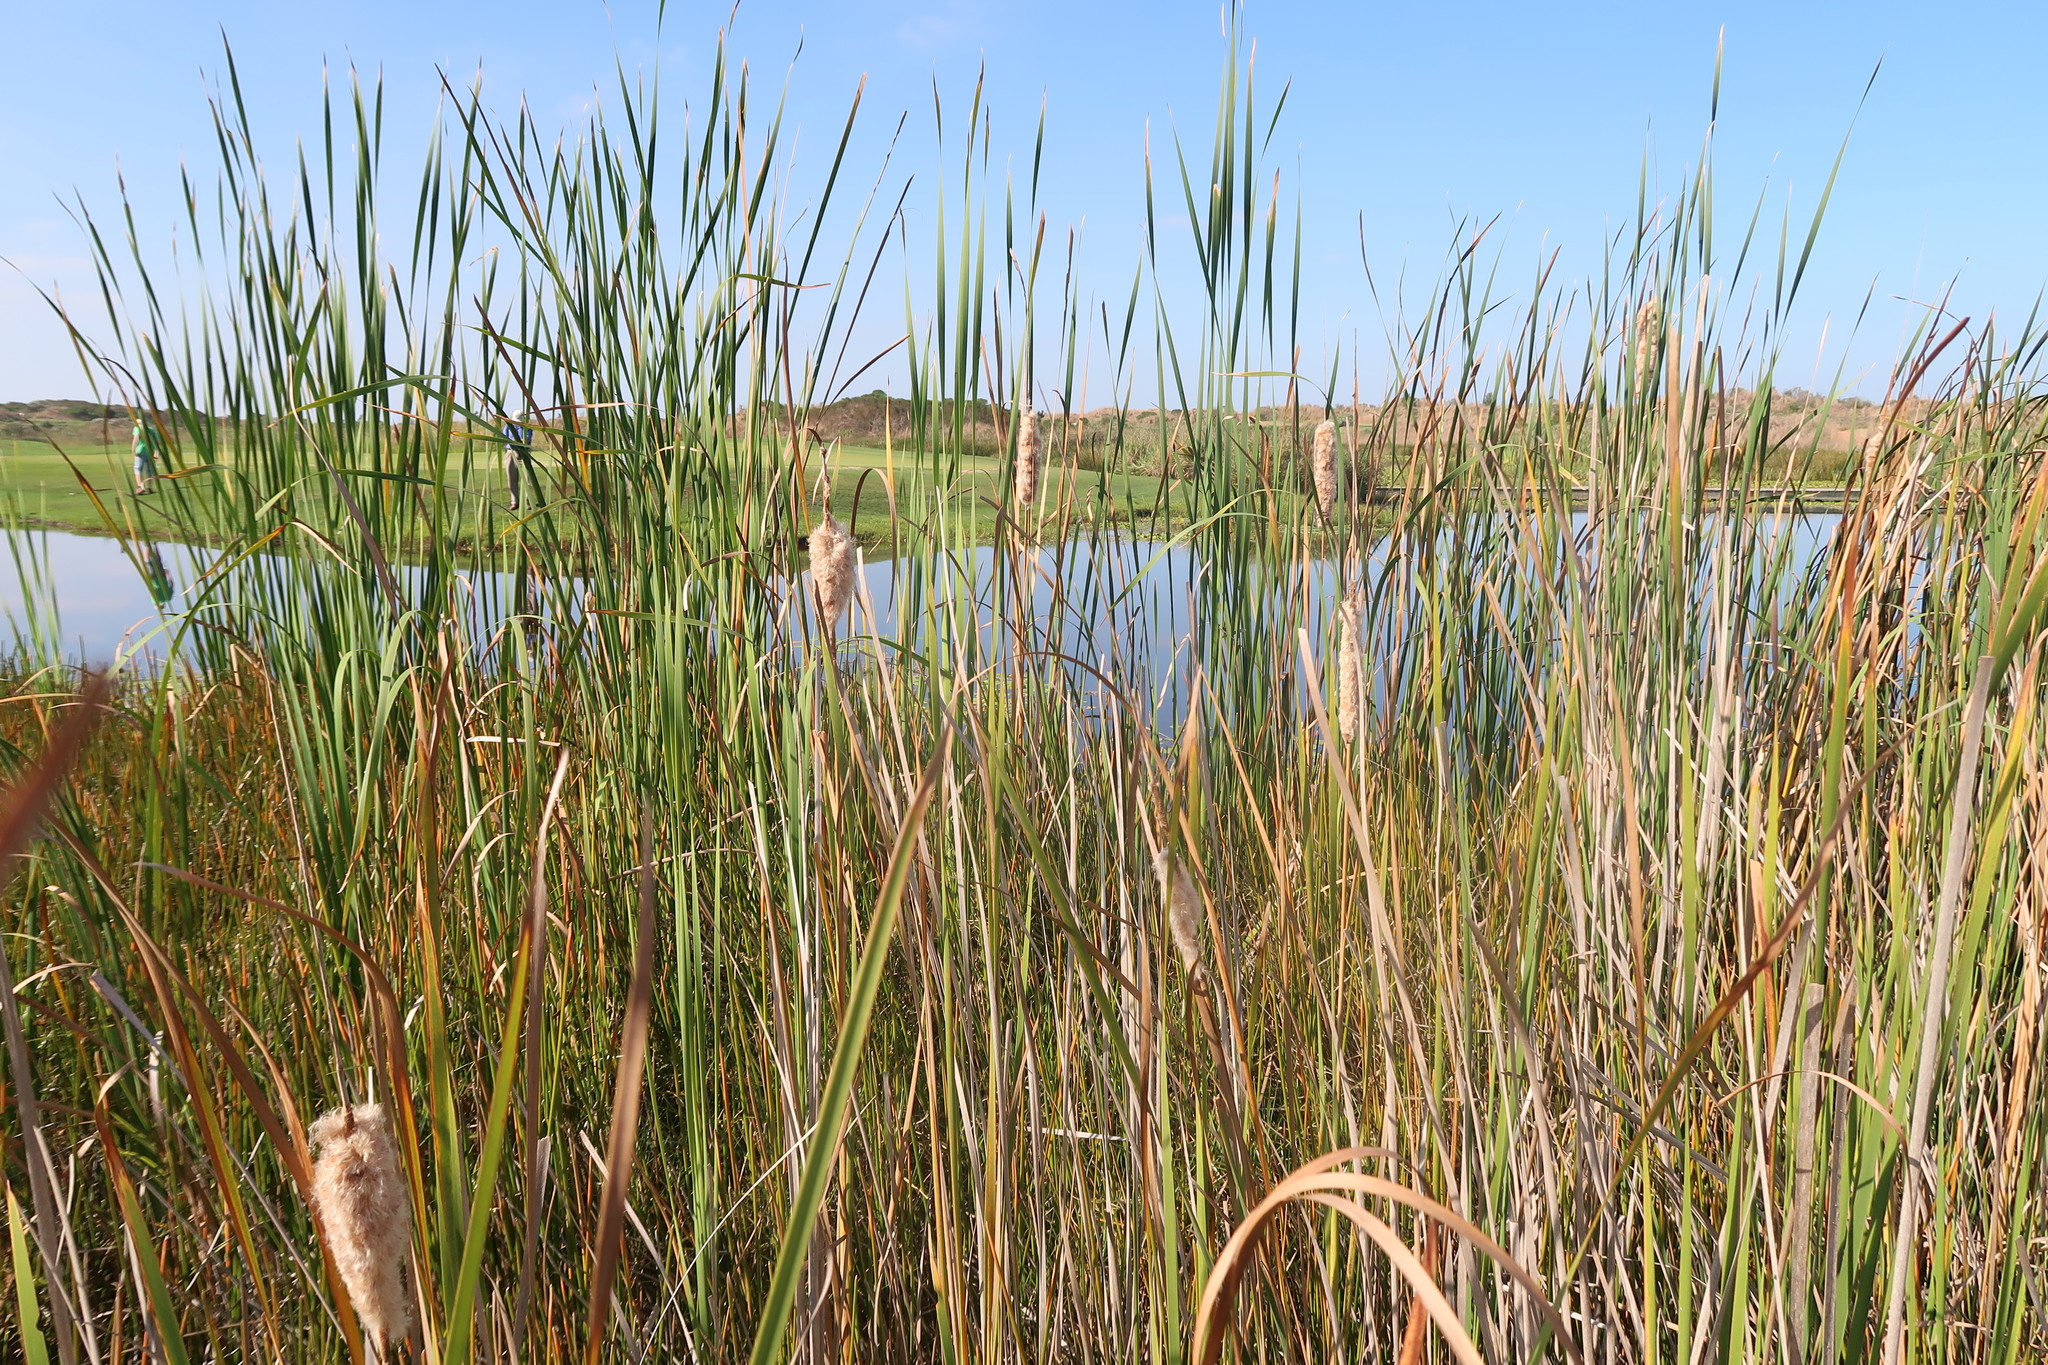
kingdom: Plantae
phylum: Tracheophyta
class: Liliopsida
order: Poales
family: Typhaceae
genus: Typha
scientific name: Typha capensis
